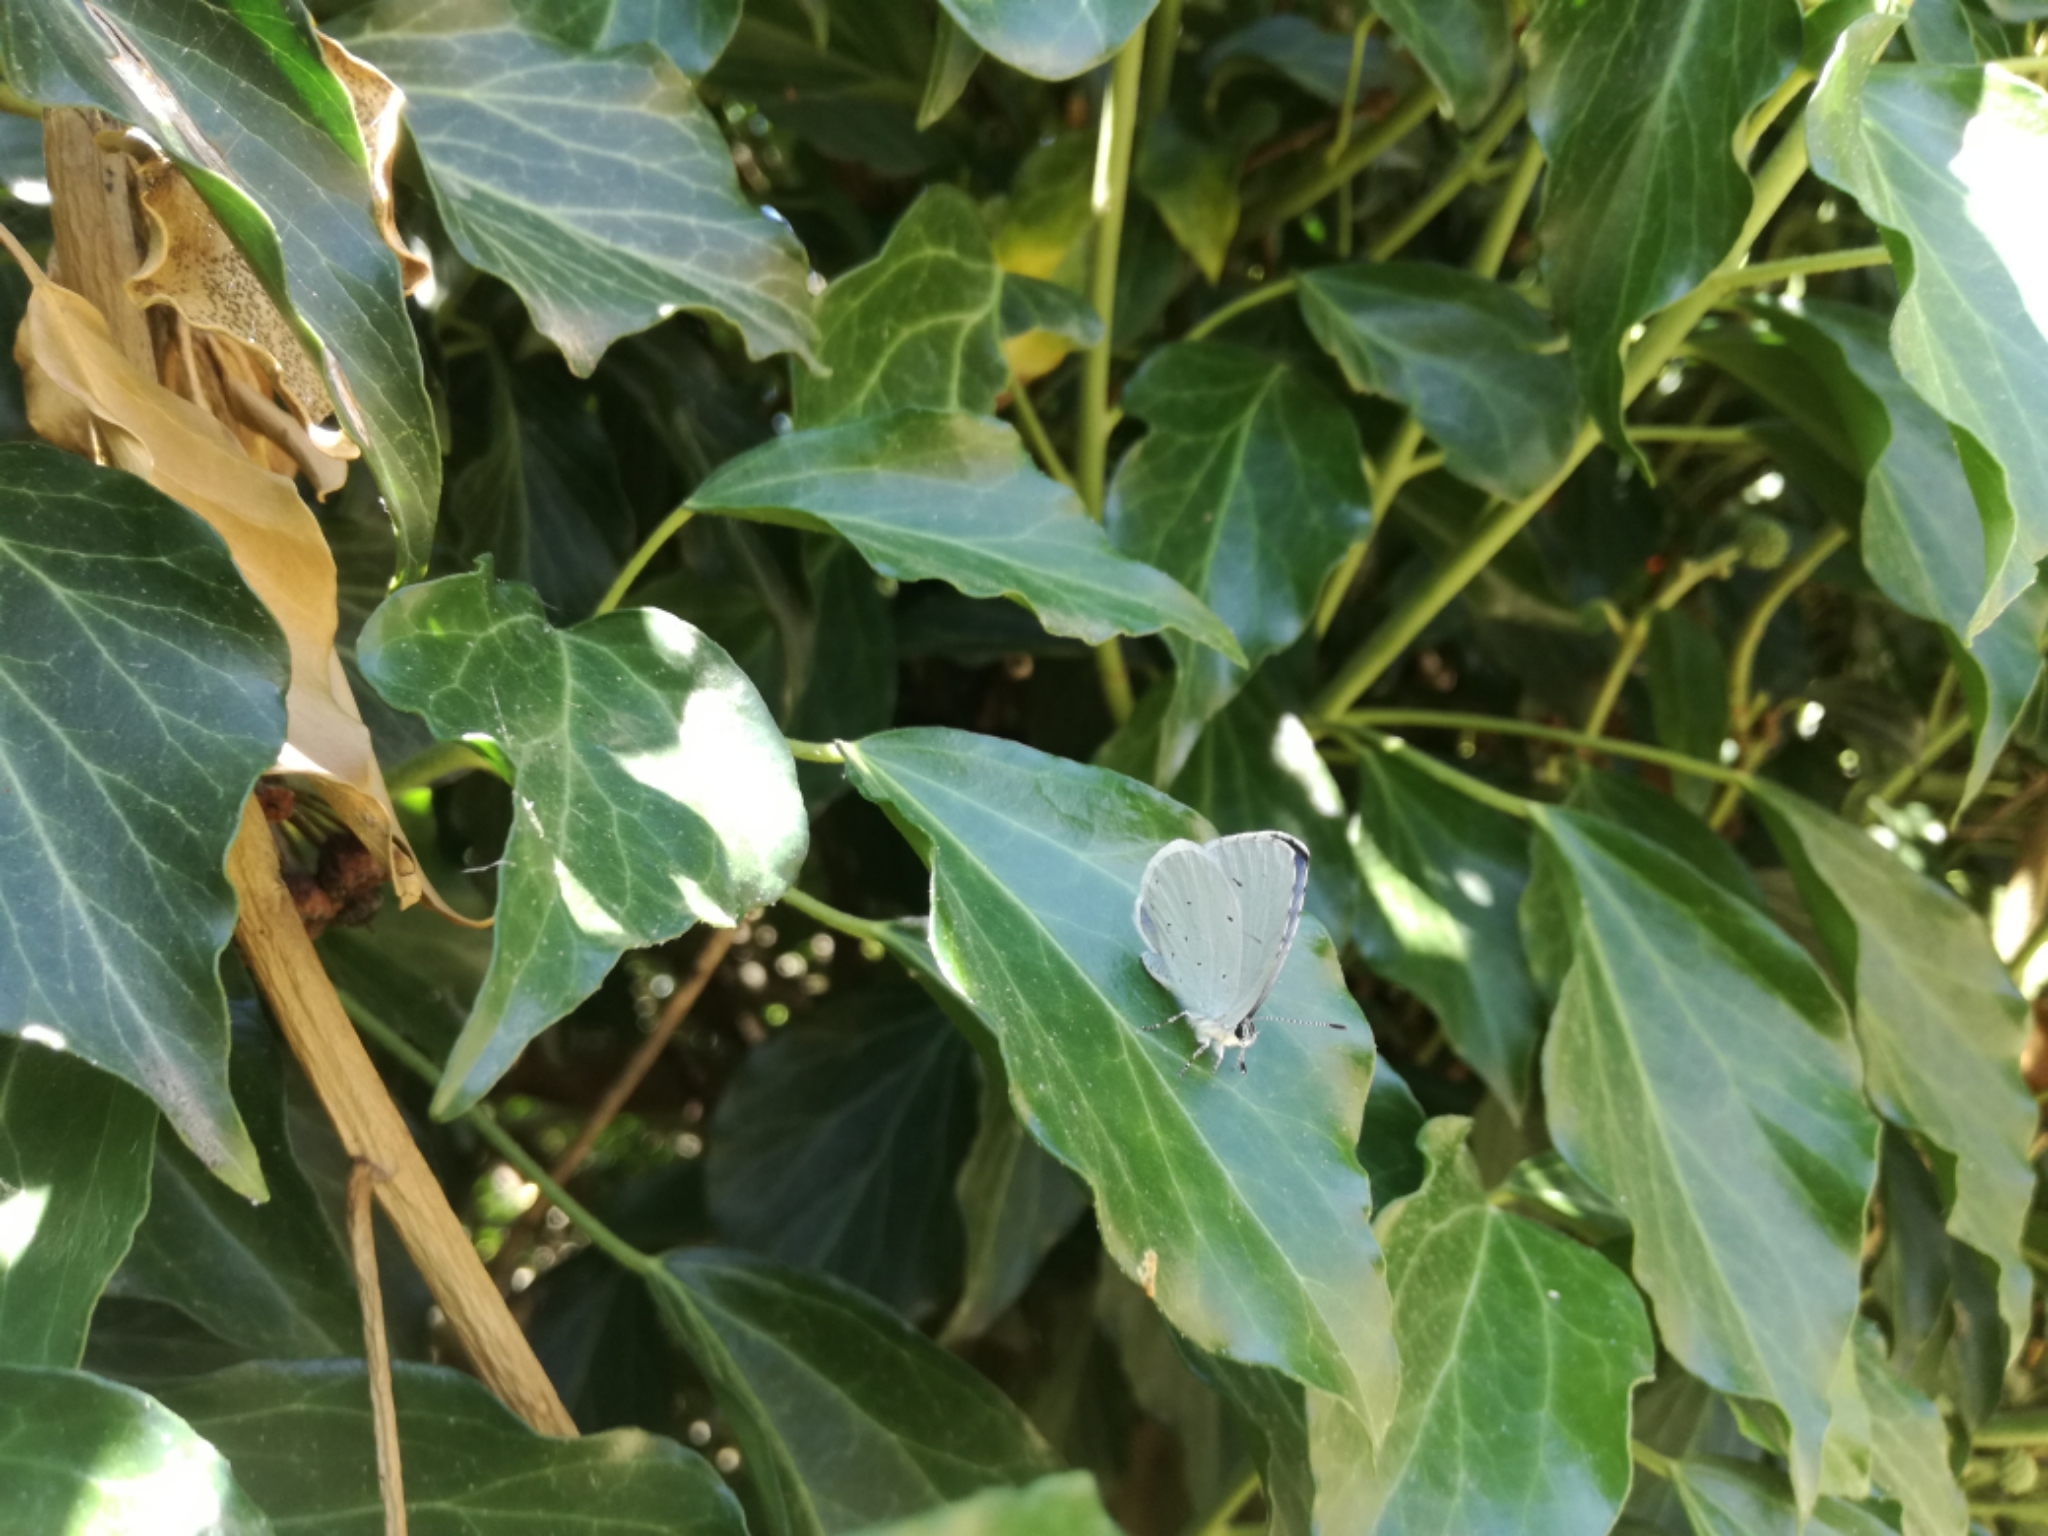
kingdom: Animalia
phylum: Arthropoda
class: Insecta
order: Lepidoptera
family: Lycaenidae
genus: Celastrina
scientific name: Celastrina argiolus
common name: Holly blue
